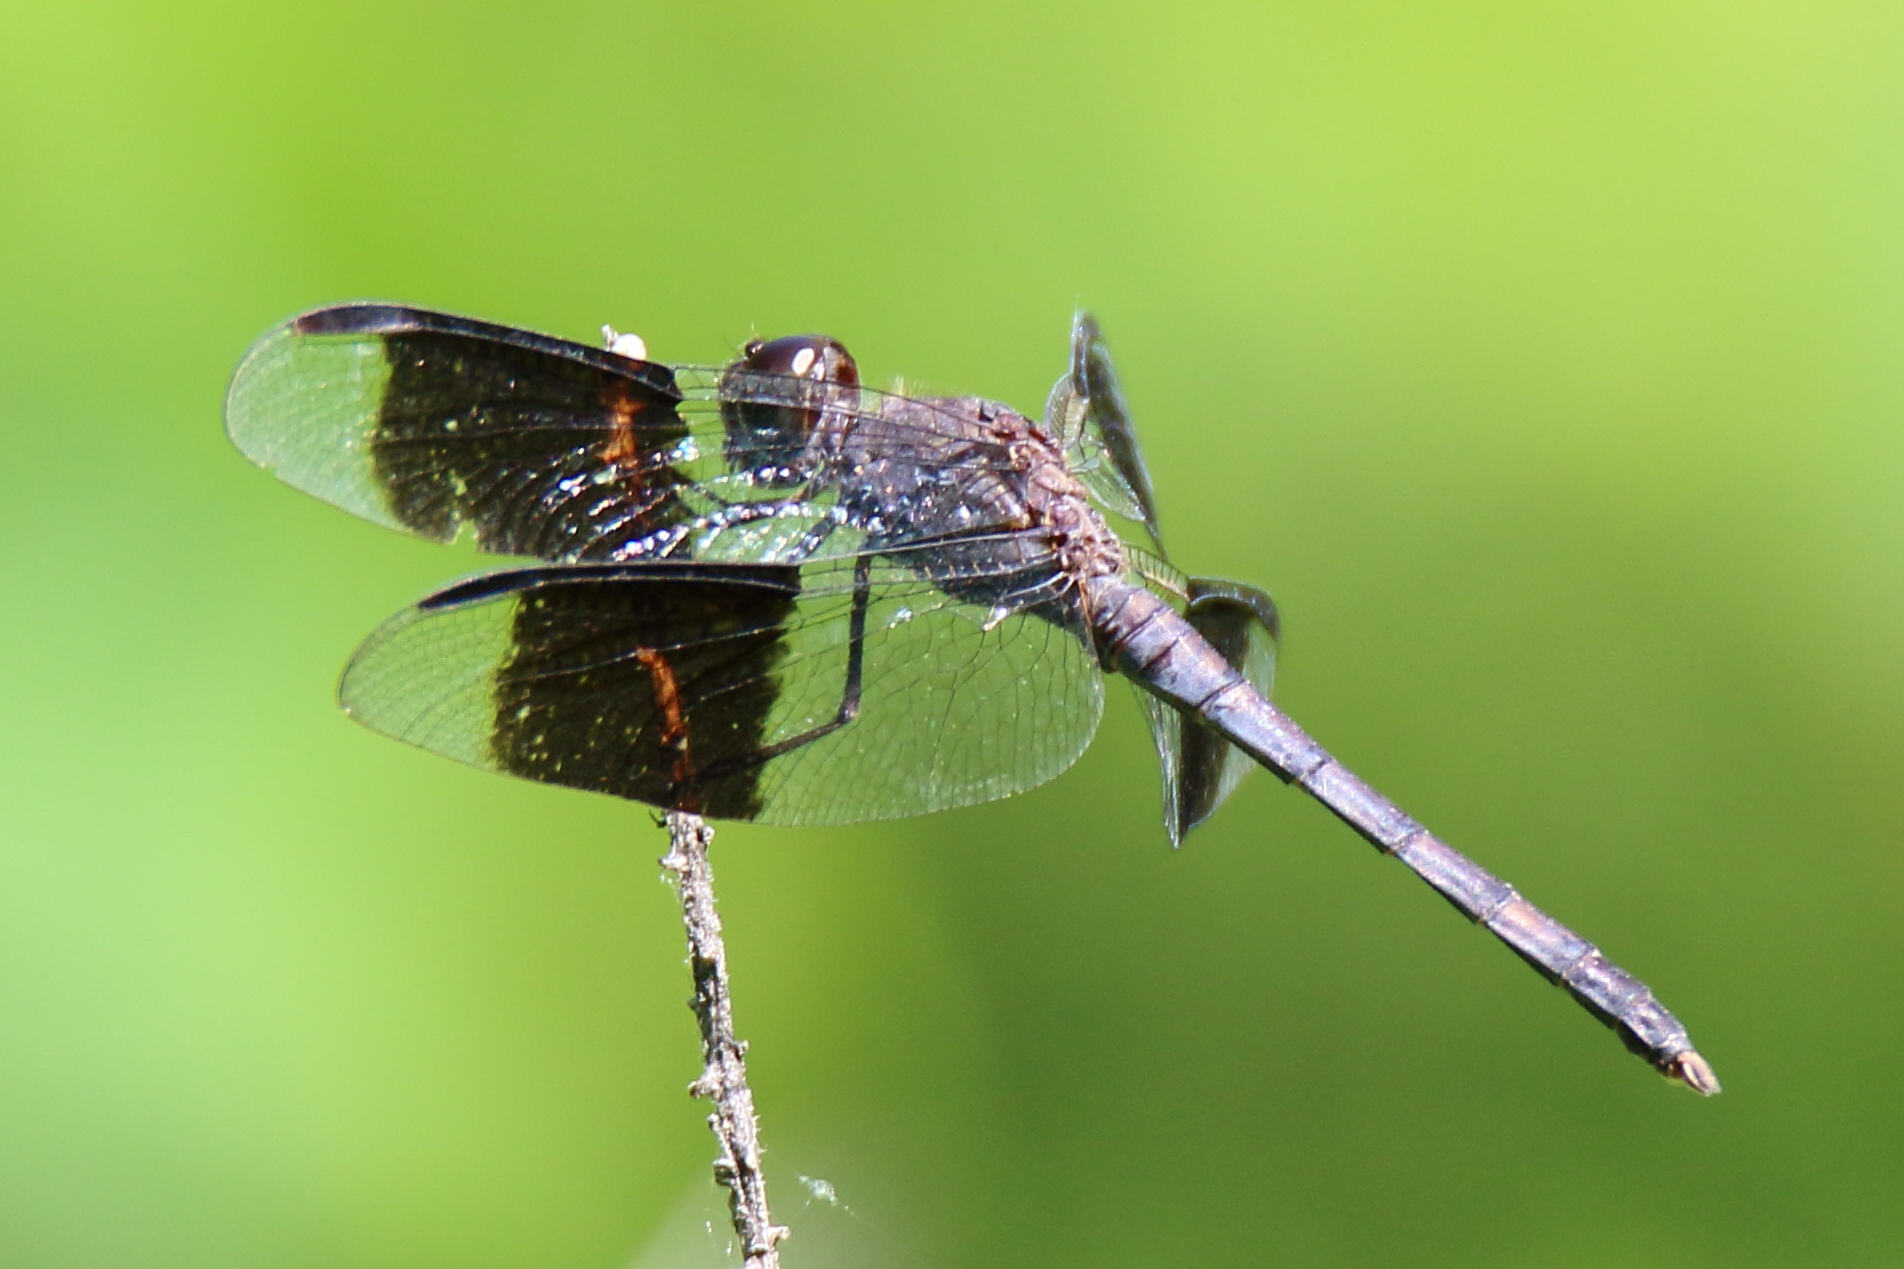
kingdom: Animalia
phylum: Arthropoda
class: Insecta
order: Odonata
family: Libellulidae
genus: Erythrodiplax
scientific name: Erythrodiplax umbrata
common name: Band-winged dragonlet
